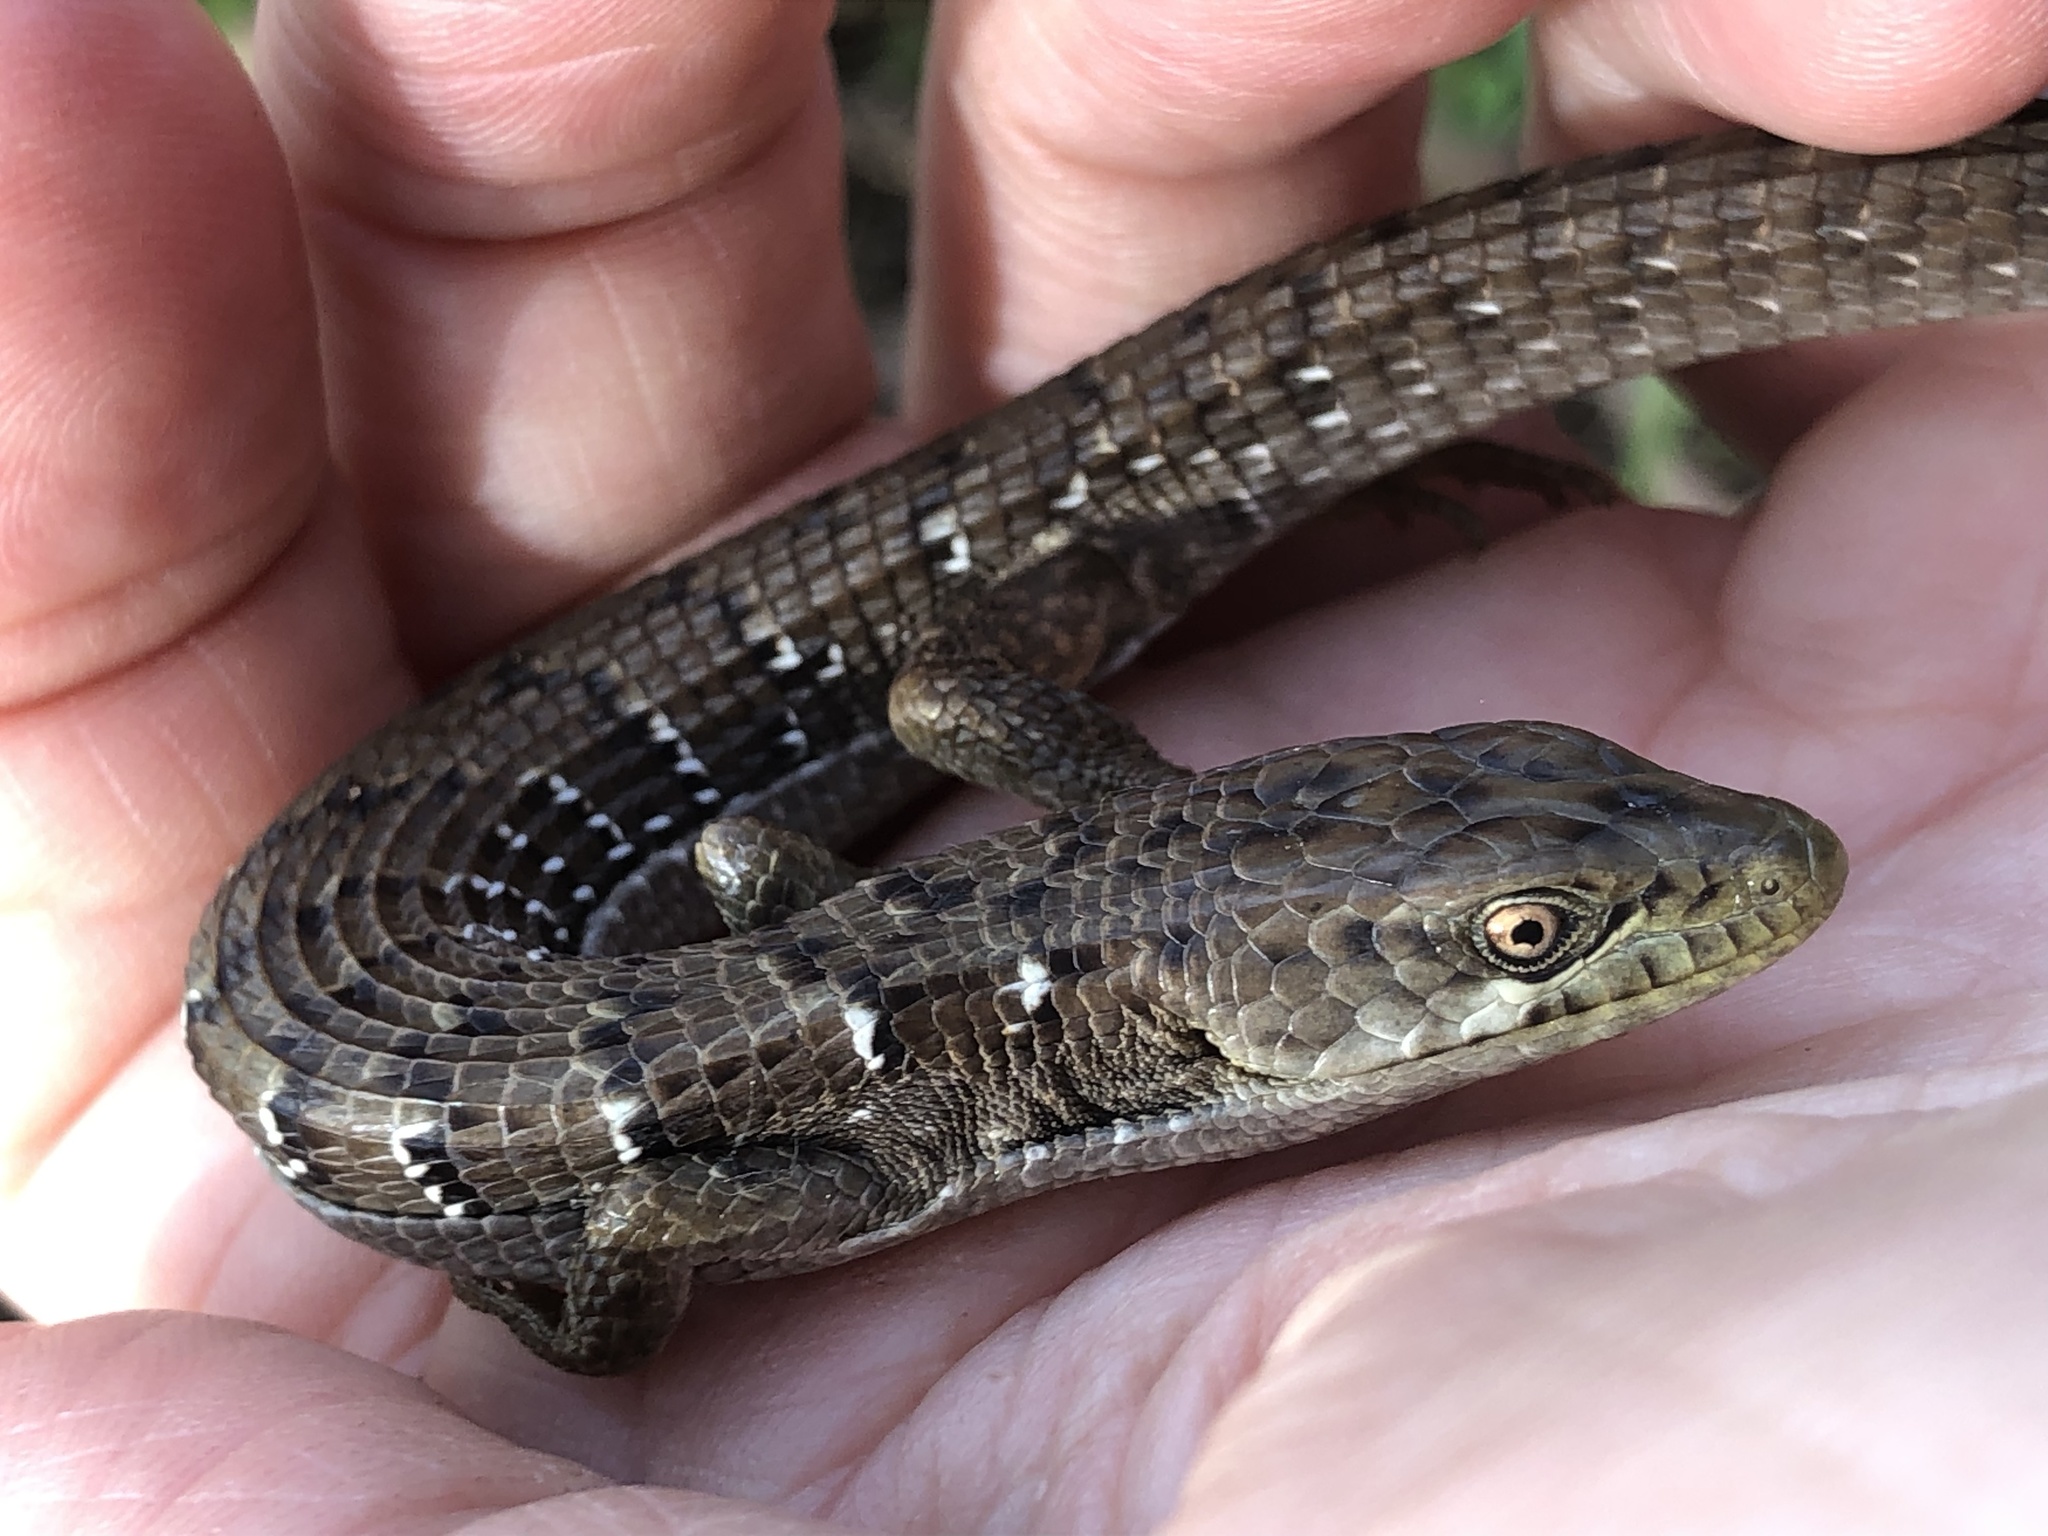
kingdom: Animalia
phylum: Chordata
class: Squamata
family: Anguidae
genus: Elgaria
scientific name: Elgaria multicarinata
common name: Southern alligator lizard
